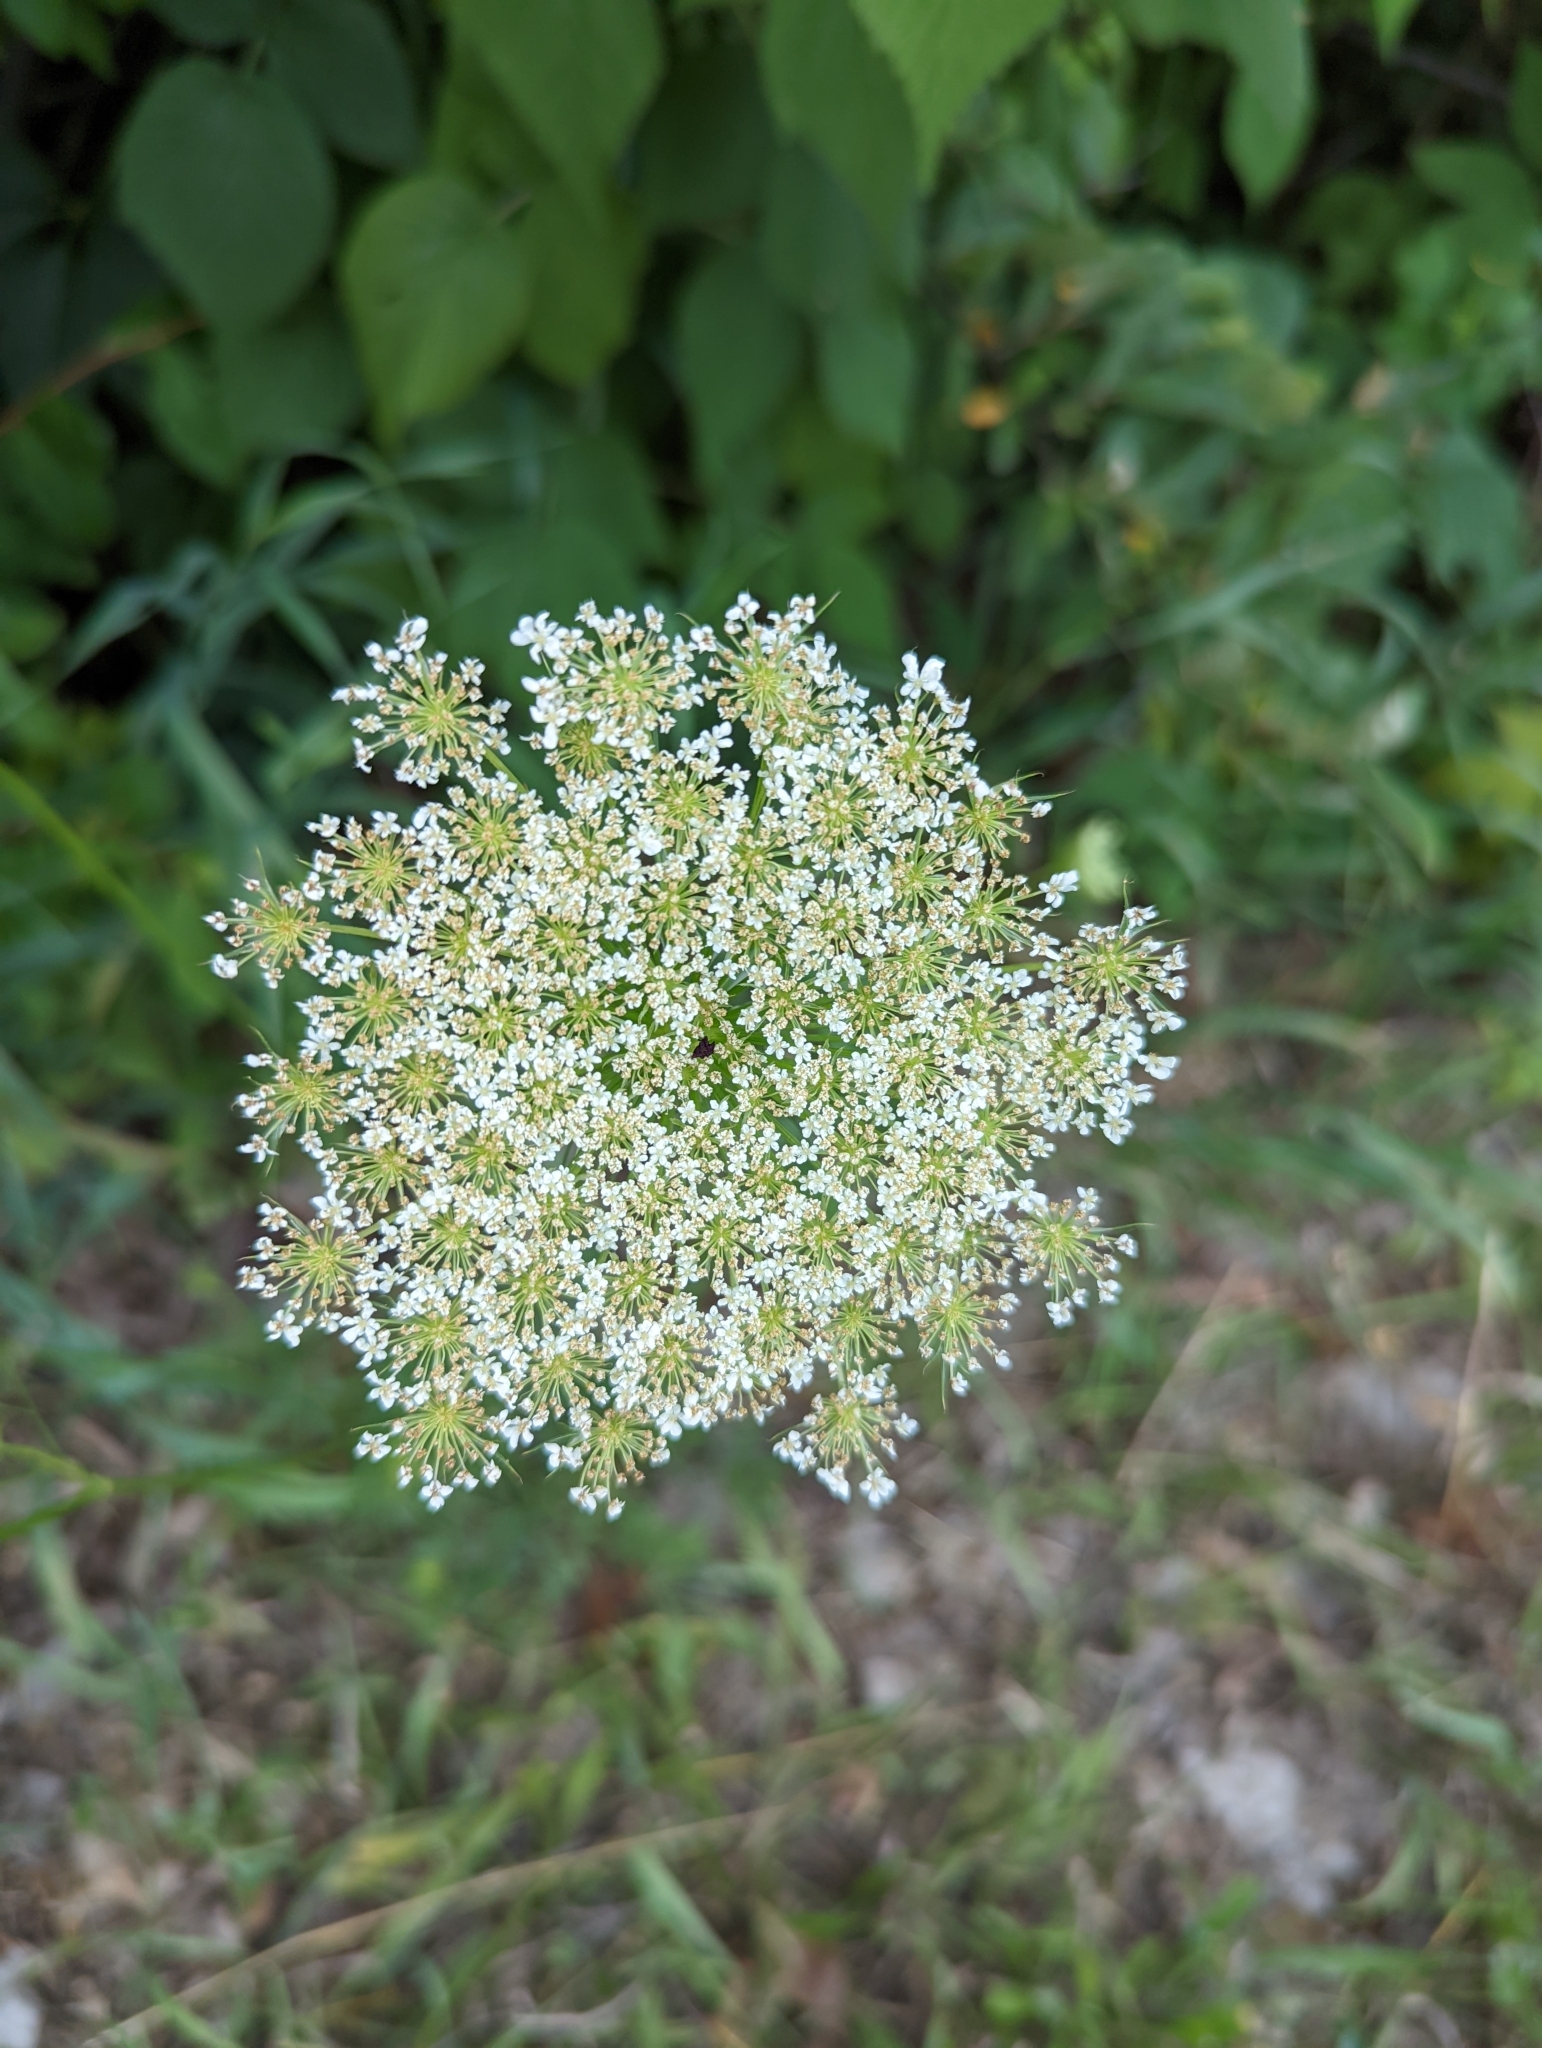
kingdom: Plantae
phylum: Tracheophyta
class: Magnoliopsida
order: Apiales
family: Apiaceae
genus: Daucus
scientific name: Daucus carota
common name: Wild carrot
